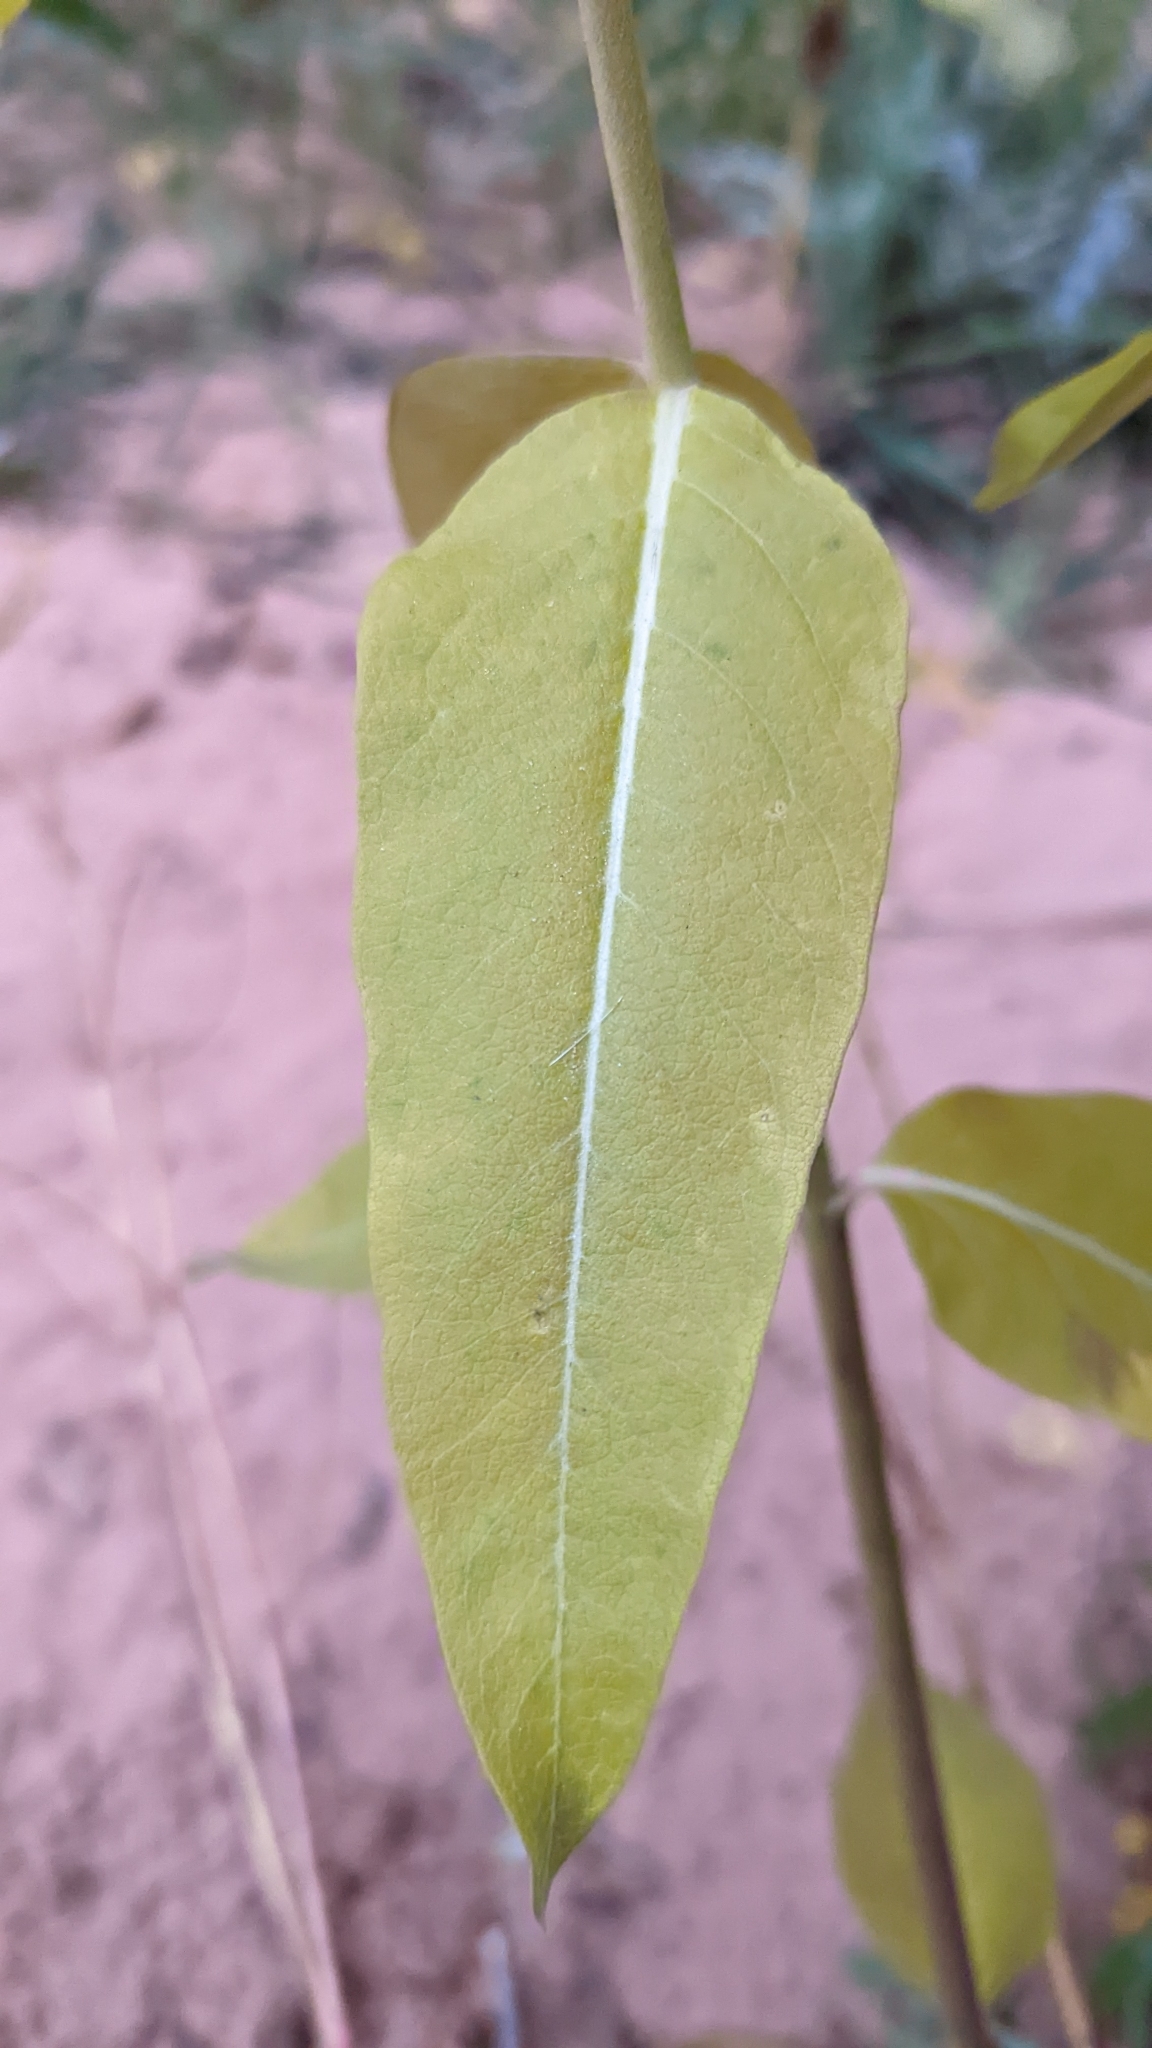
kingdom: Plantae
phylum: Tracheophyta
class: Magnoliopsida
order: Gentianales
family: Apocynaceae
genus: Asclepias
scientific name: Asclepias speciosa
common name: Showy milkweed
